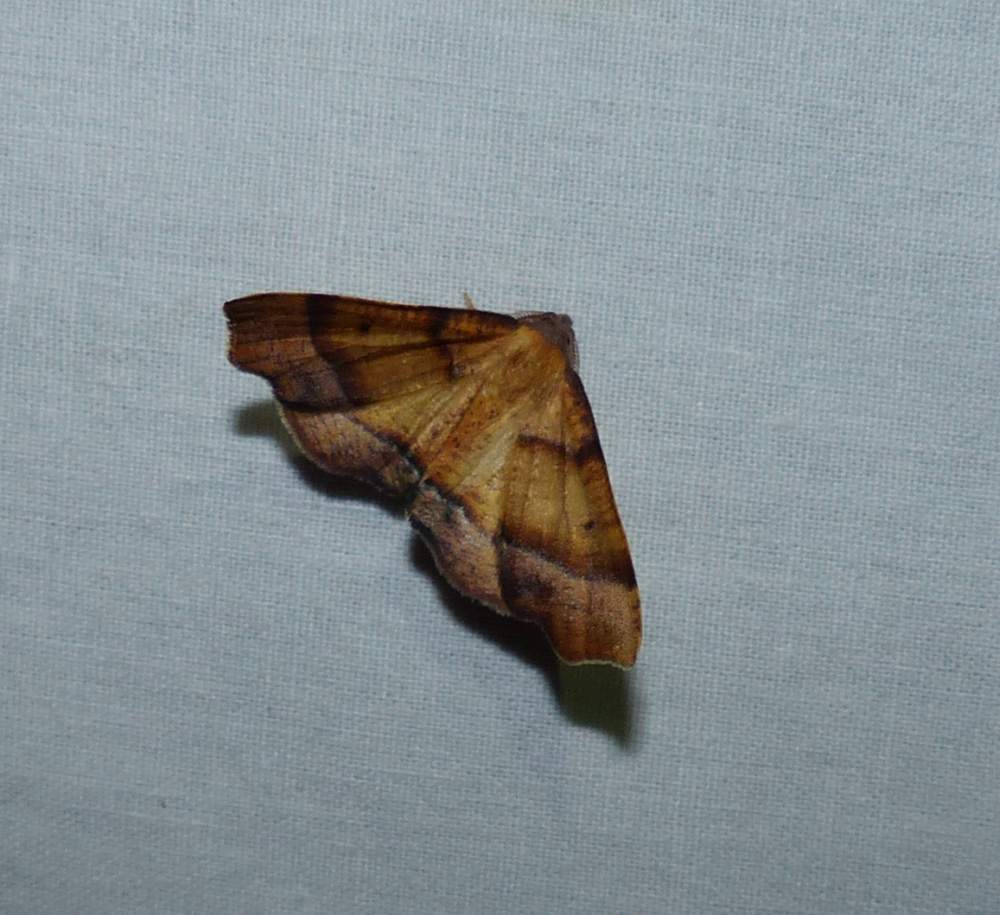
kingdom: Animalia
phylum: Arthropoda
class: Insecta
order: Lepidoptera
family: Geometridae
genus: Plagodis
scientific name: Plagodis phlogosaria
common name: Straight-lined plagodis
